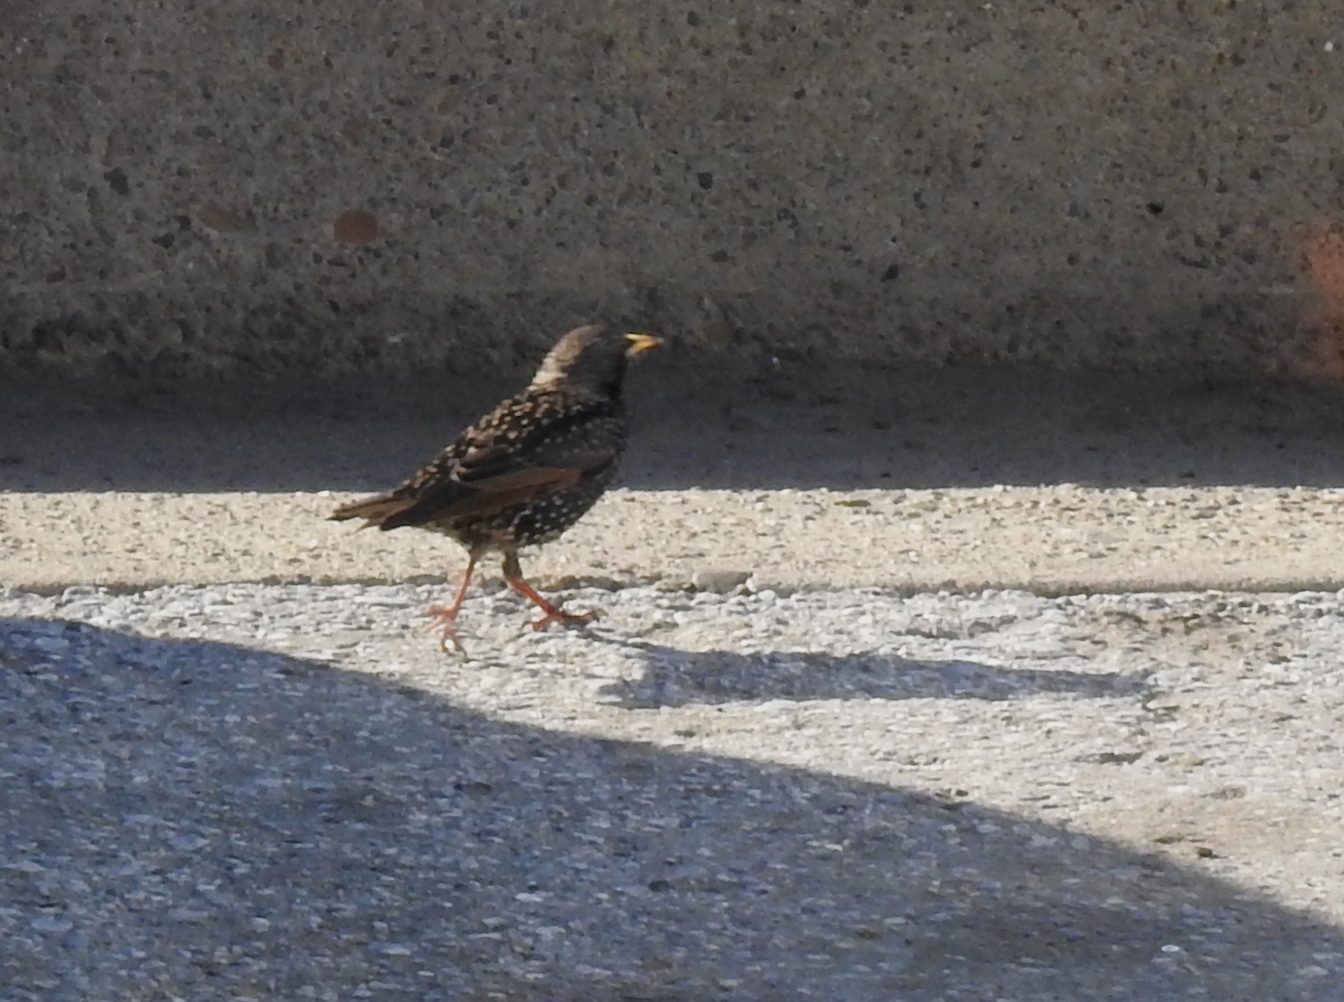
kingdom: Animalia
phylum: Chordata
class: Aves
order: Passeriformes
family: Sturnidae
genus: Sturnus
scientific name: Sturnus vulgaris
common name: Common starling
